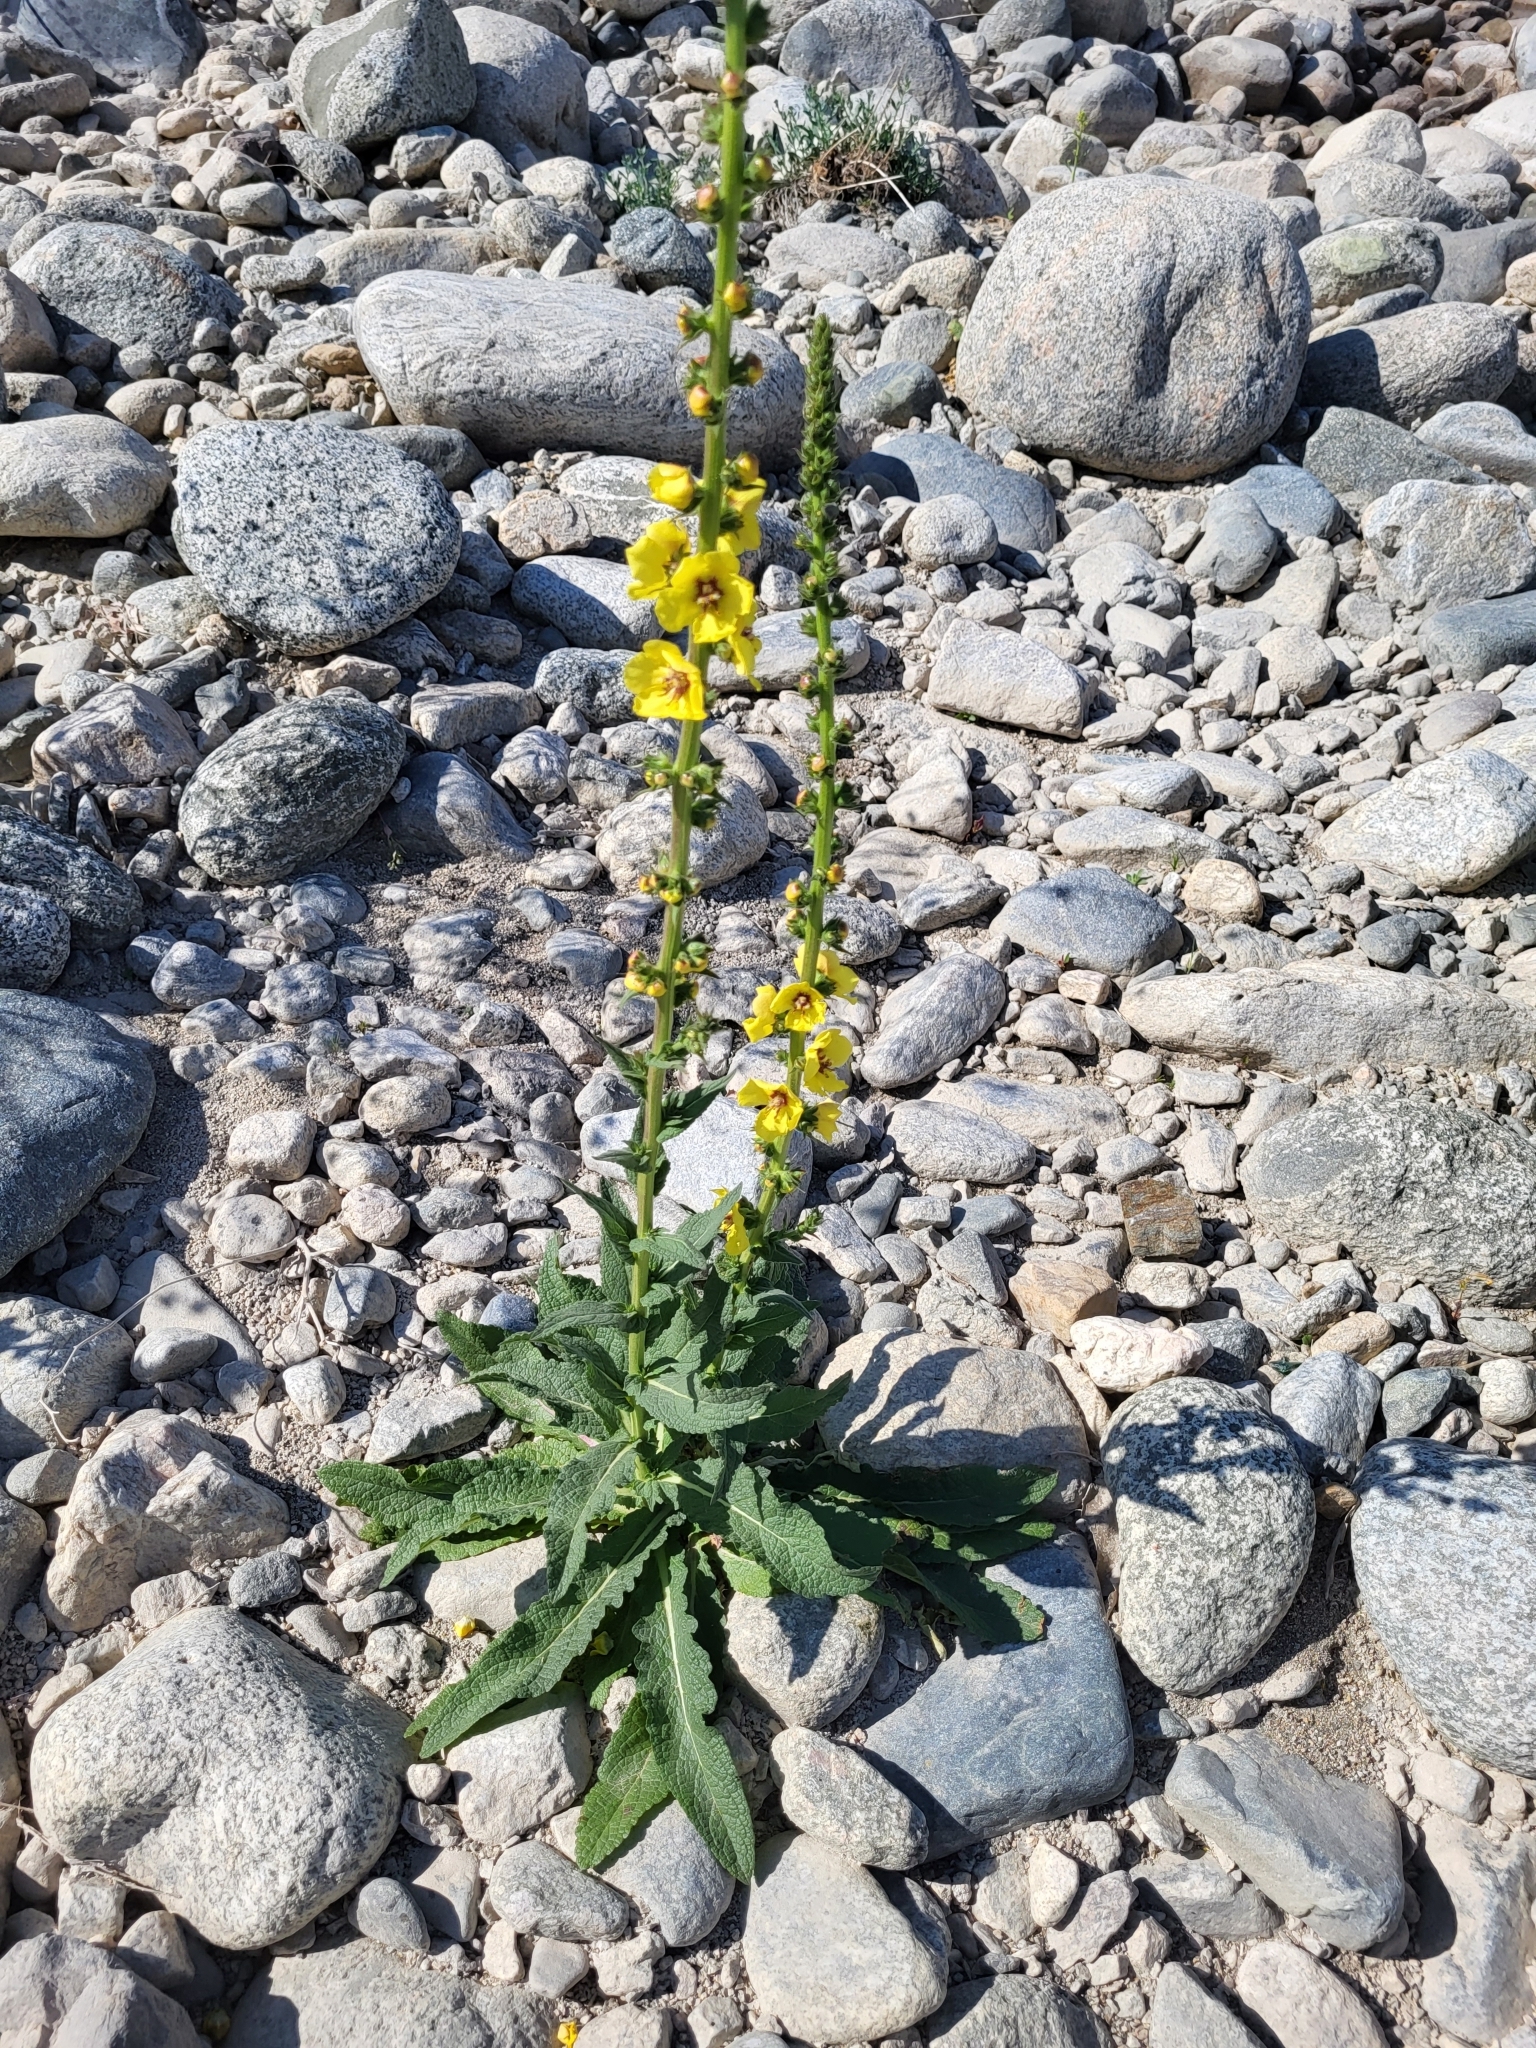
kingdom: Plantae
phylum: Tracheophyta
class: Magnoliopsida
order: Lamiales
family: Scrophulariaceae
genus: Verbascum
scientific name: Verbascum virgatum
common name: Twiggy mullein
